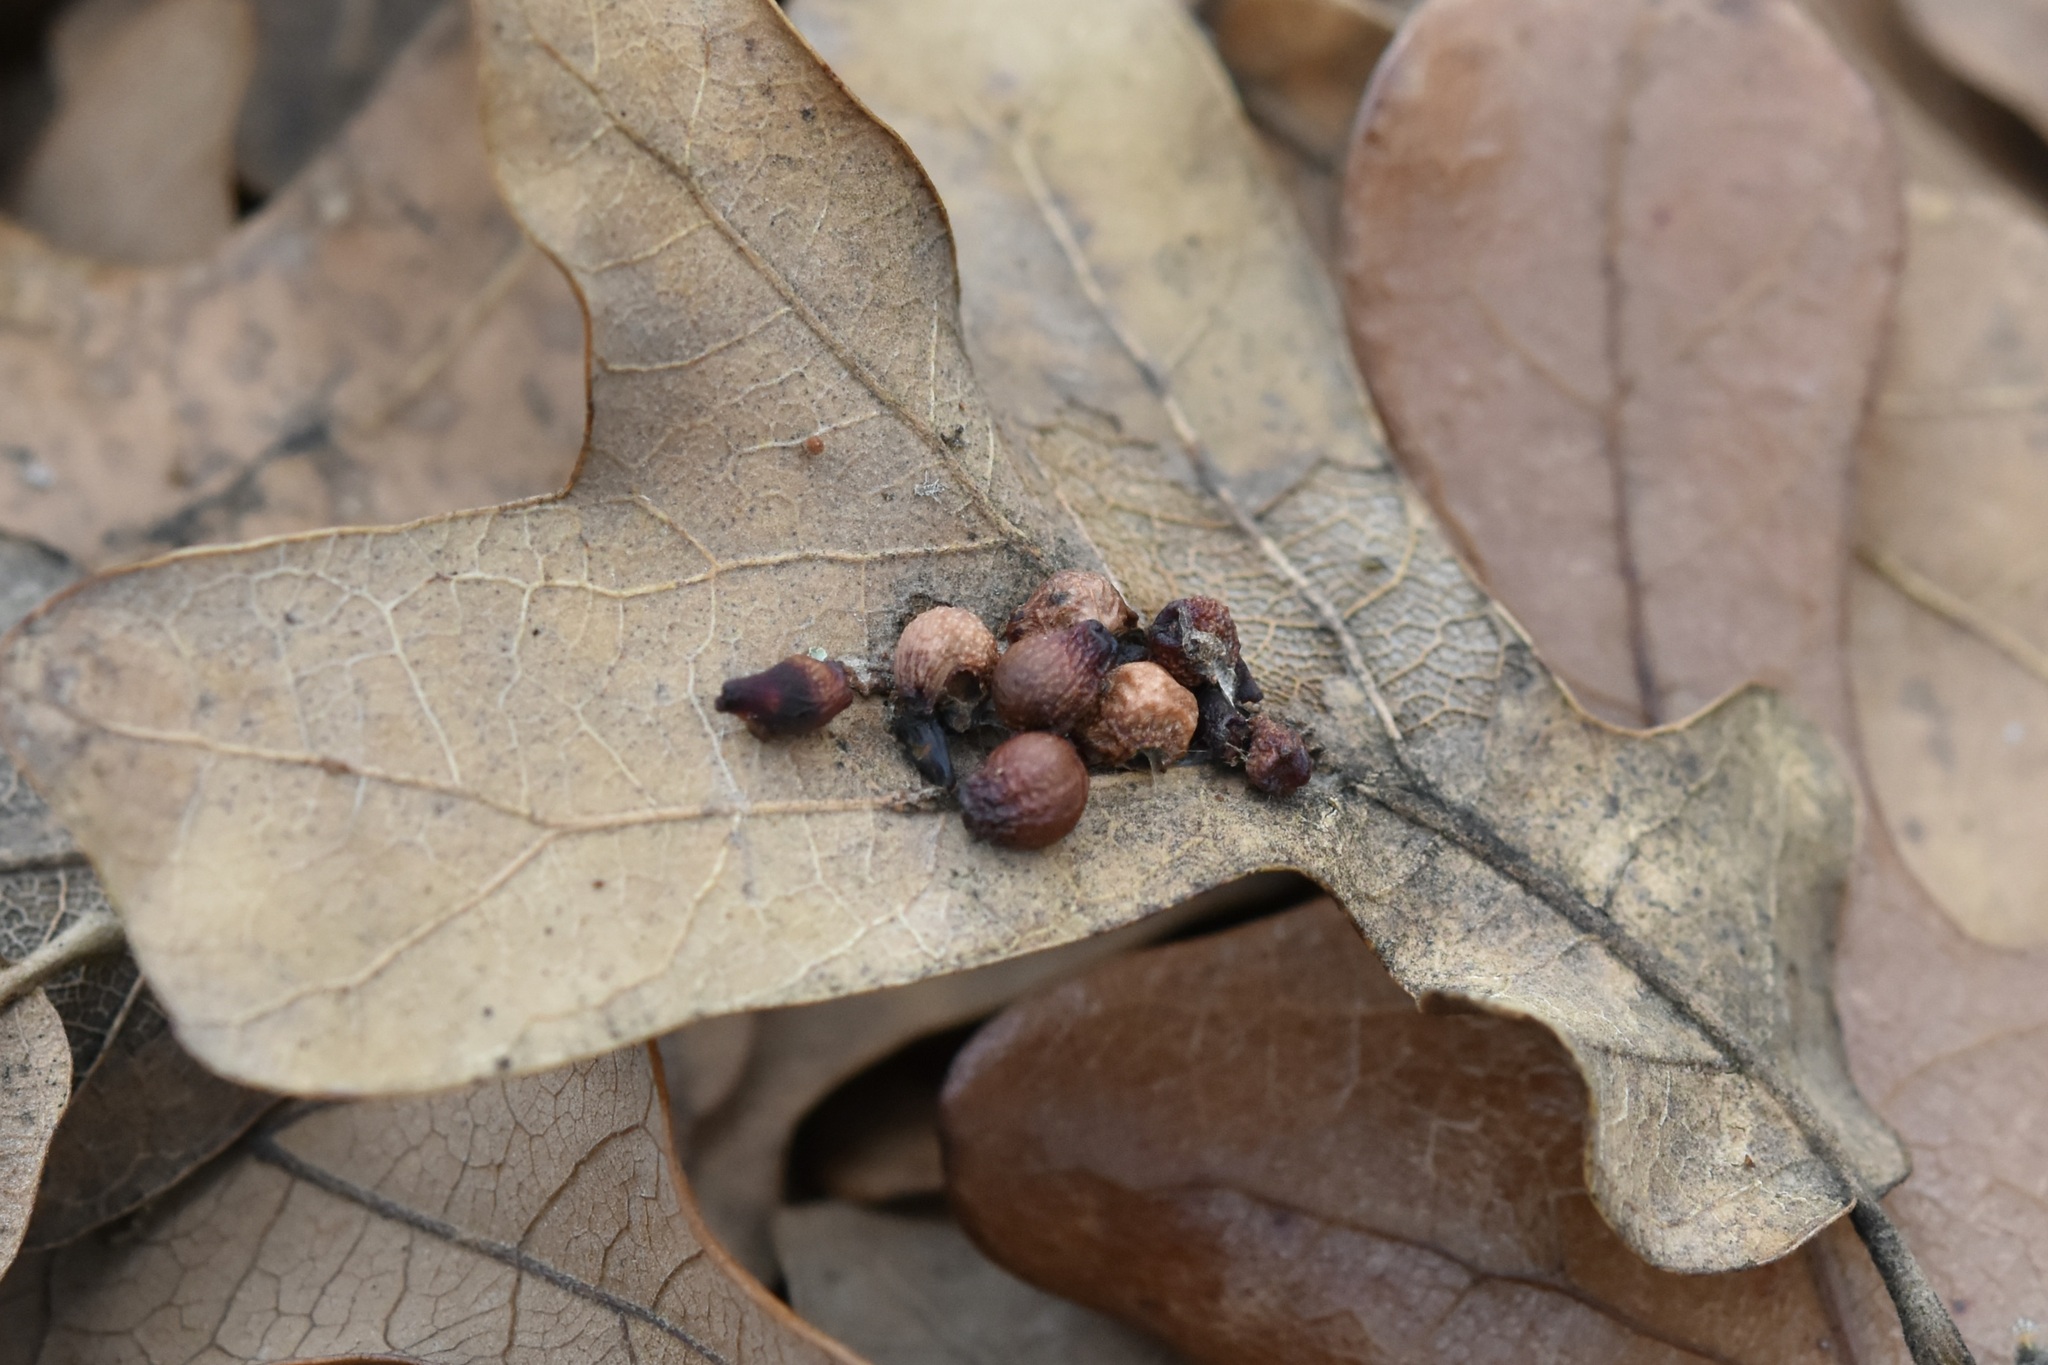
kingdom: Animalia
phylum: Arthropoda
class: Insecta
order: Hymenoptera
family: Cynipidae
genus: Andricus
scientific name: Andricus lustrans
